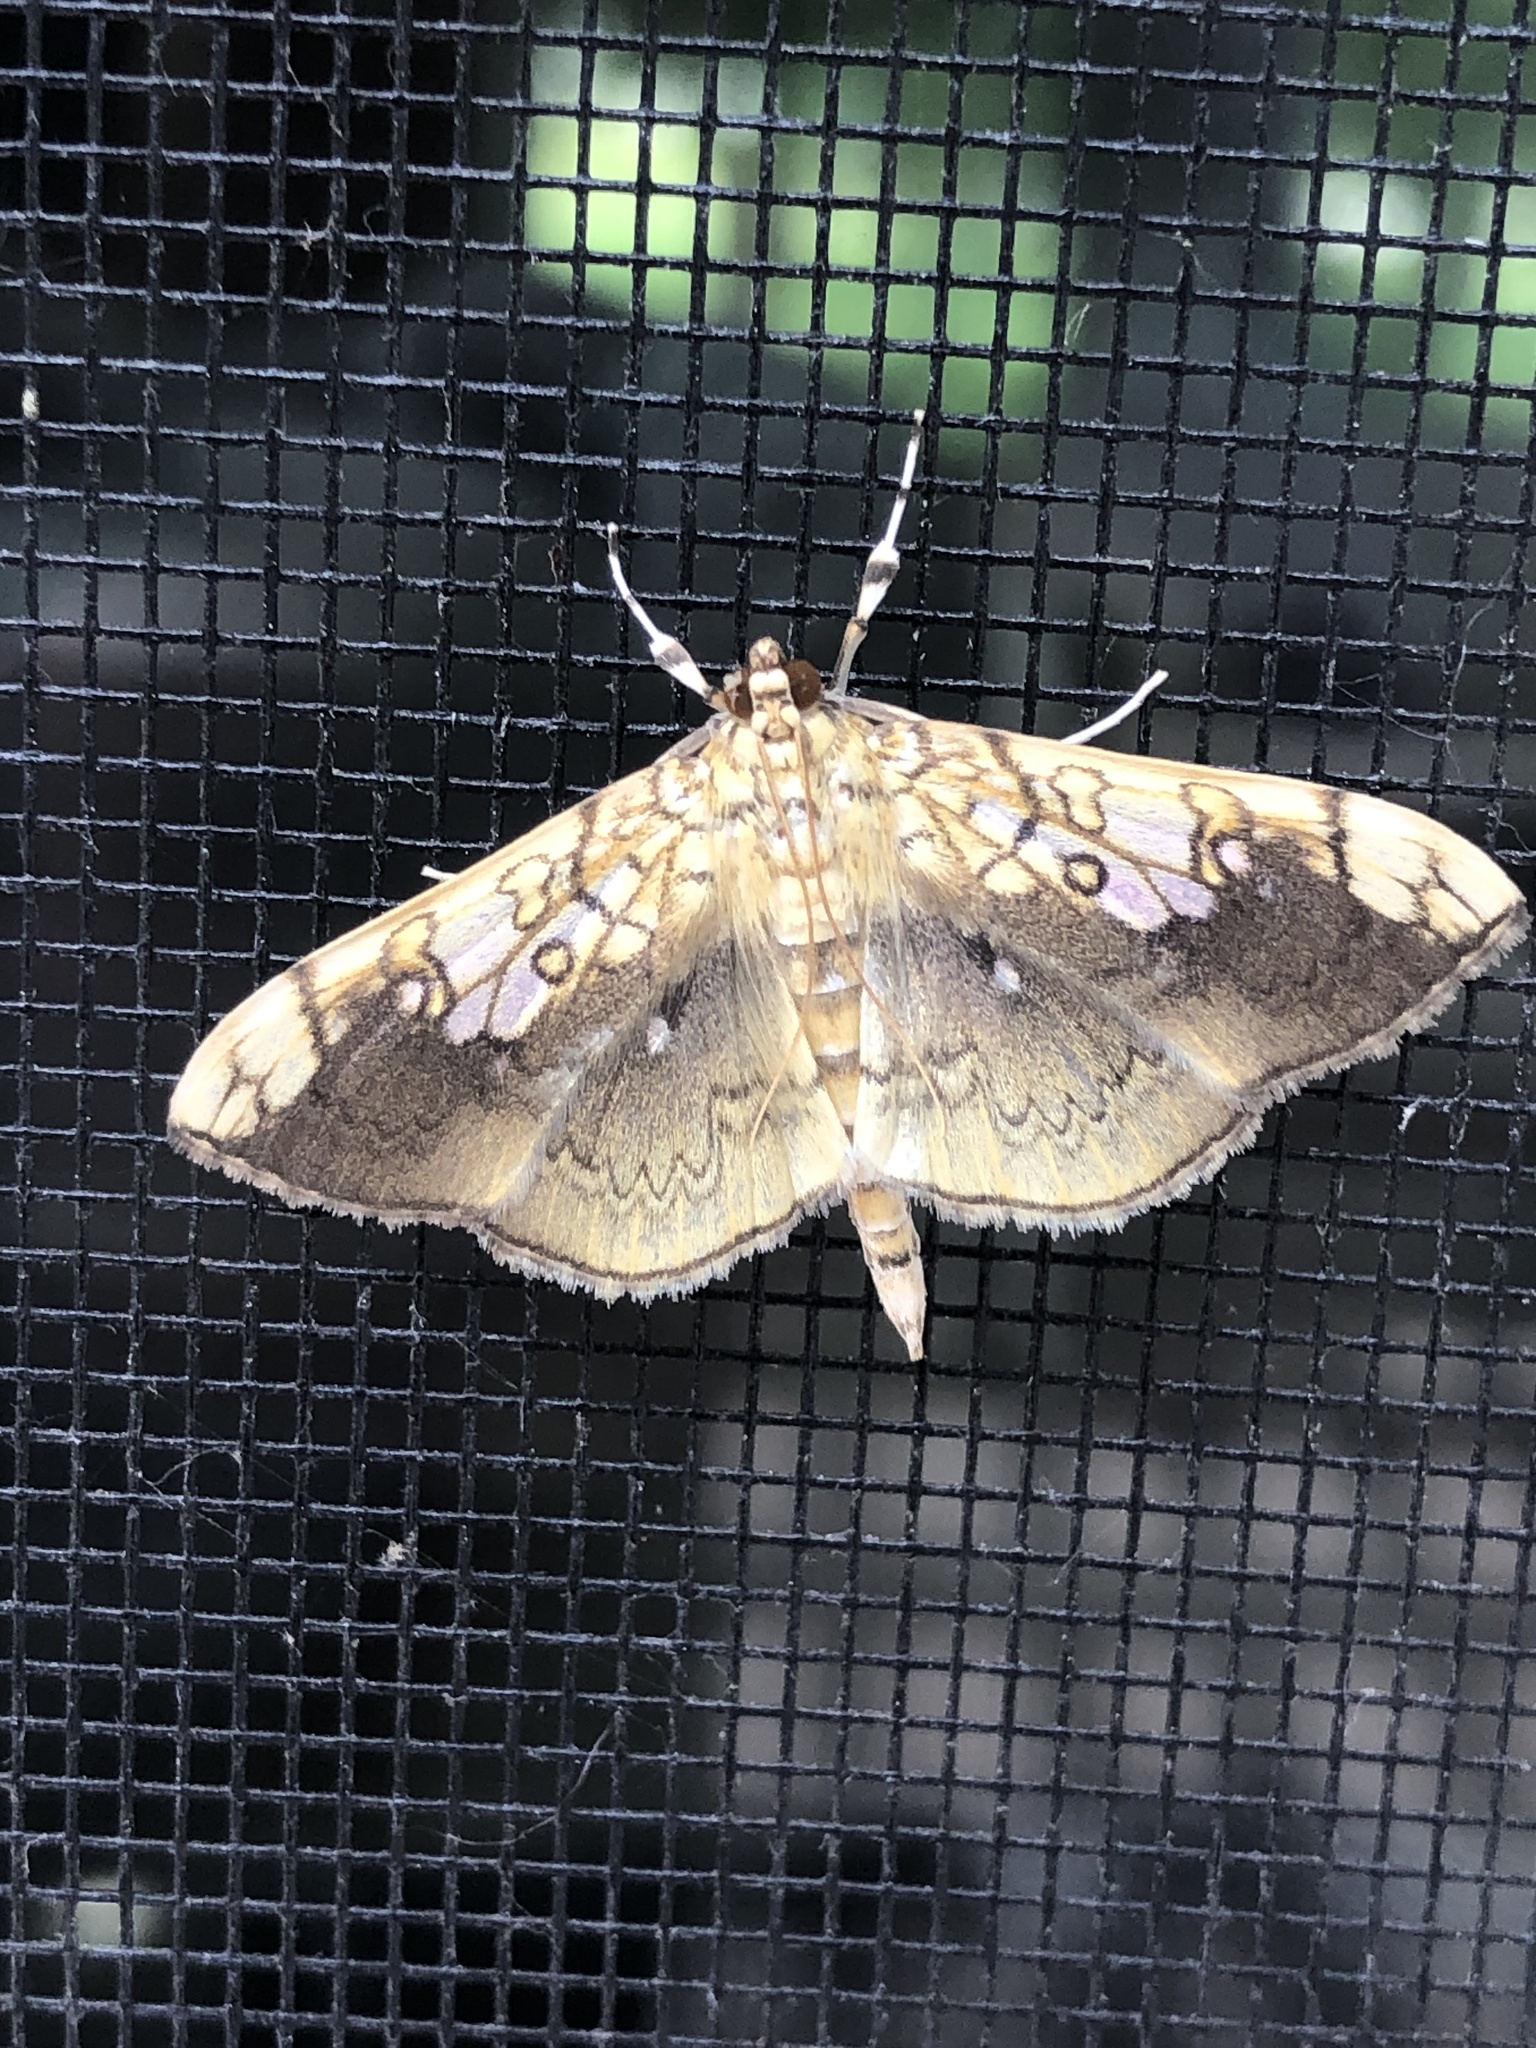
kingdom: Animalia
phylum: Arthropoda
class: Insecta
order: Lepidoptera
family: Crambidae
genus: Pantographa
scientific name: Pantographa limata
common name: Basswood leafroller moth
